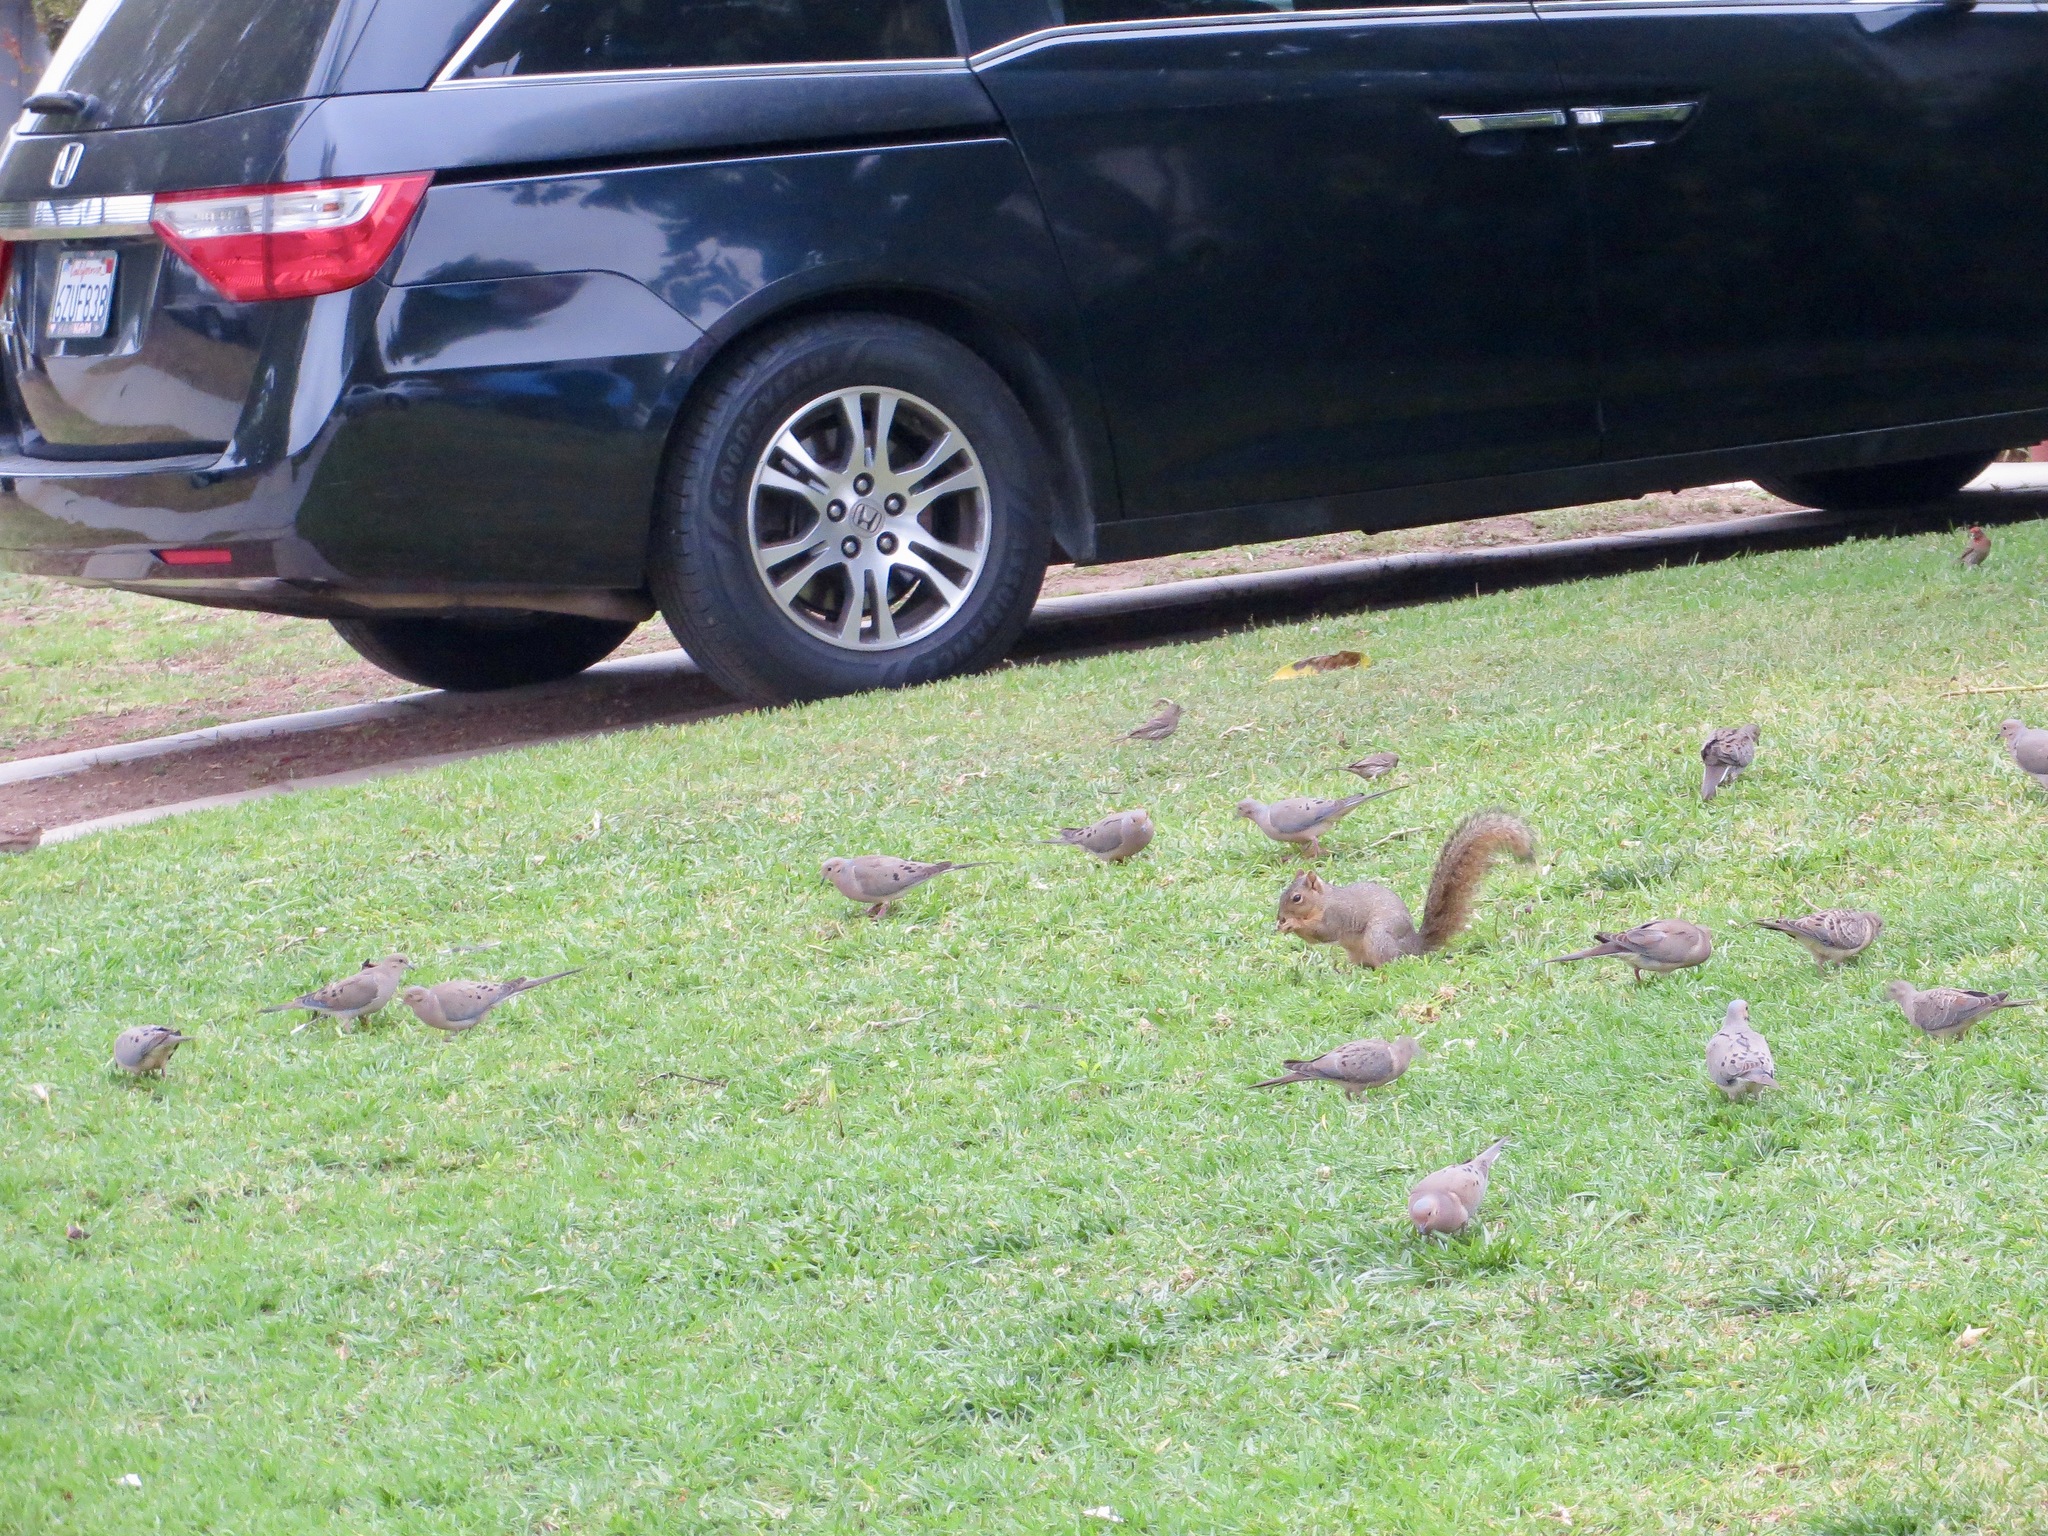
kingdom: Animalia
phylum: Chordata
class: Aves
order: Columbiformes
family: Columbidae
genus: Zenaida
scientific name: Zenaida macroura
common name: Mourning dove
